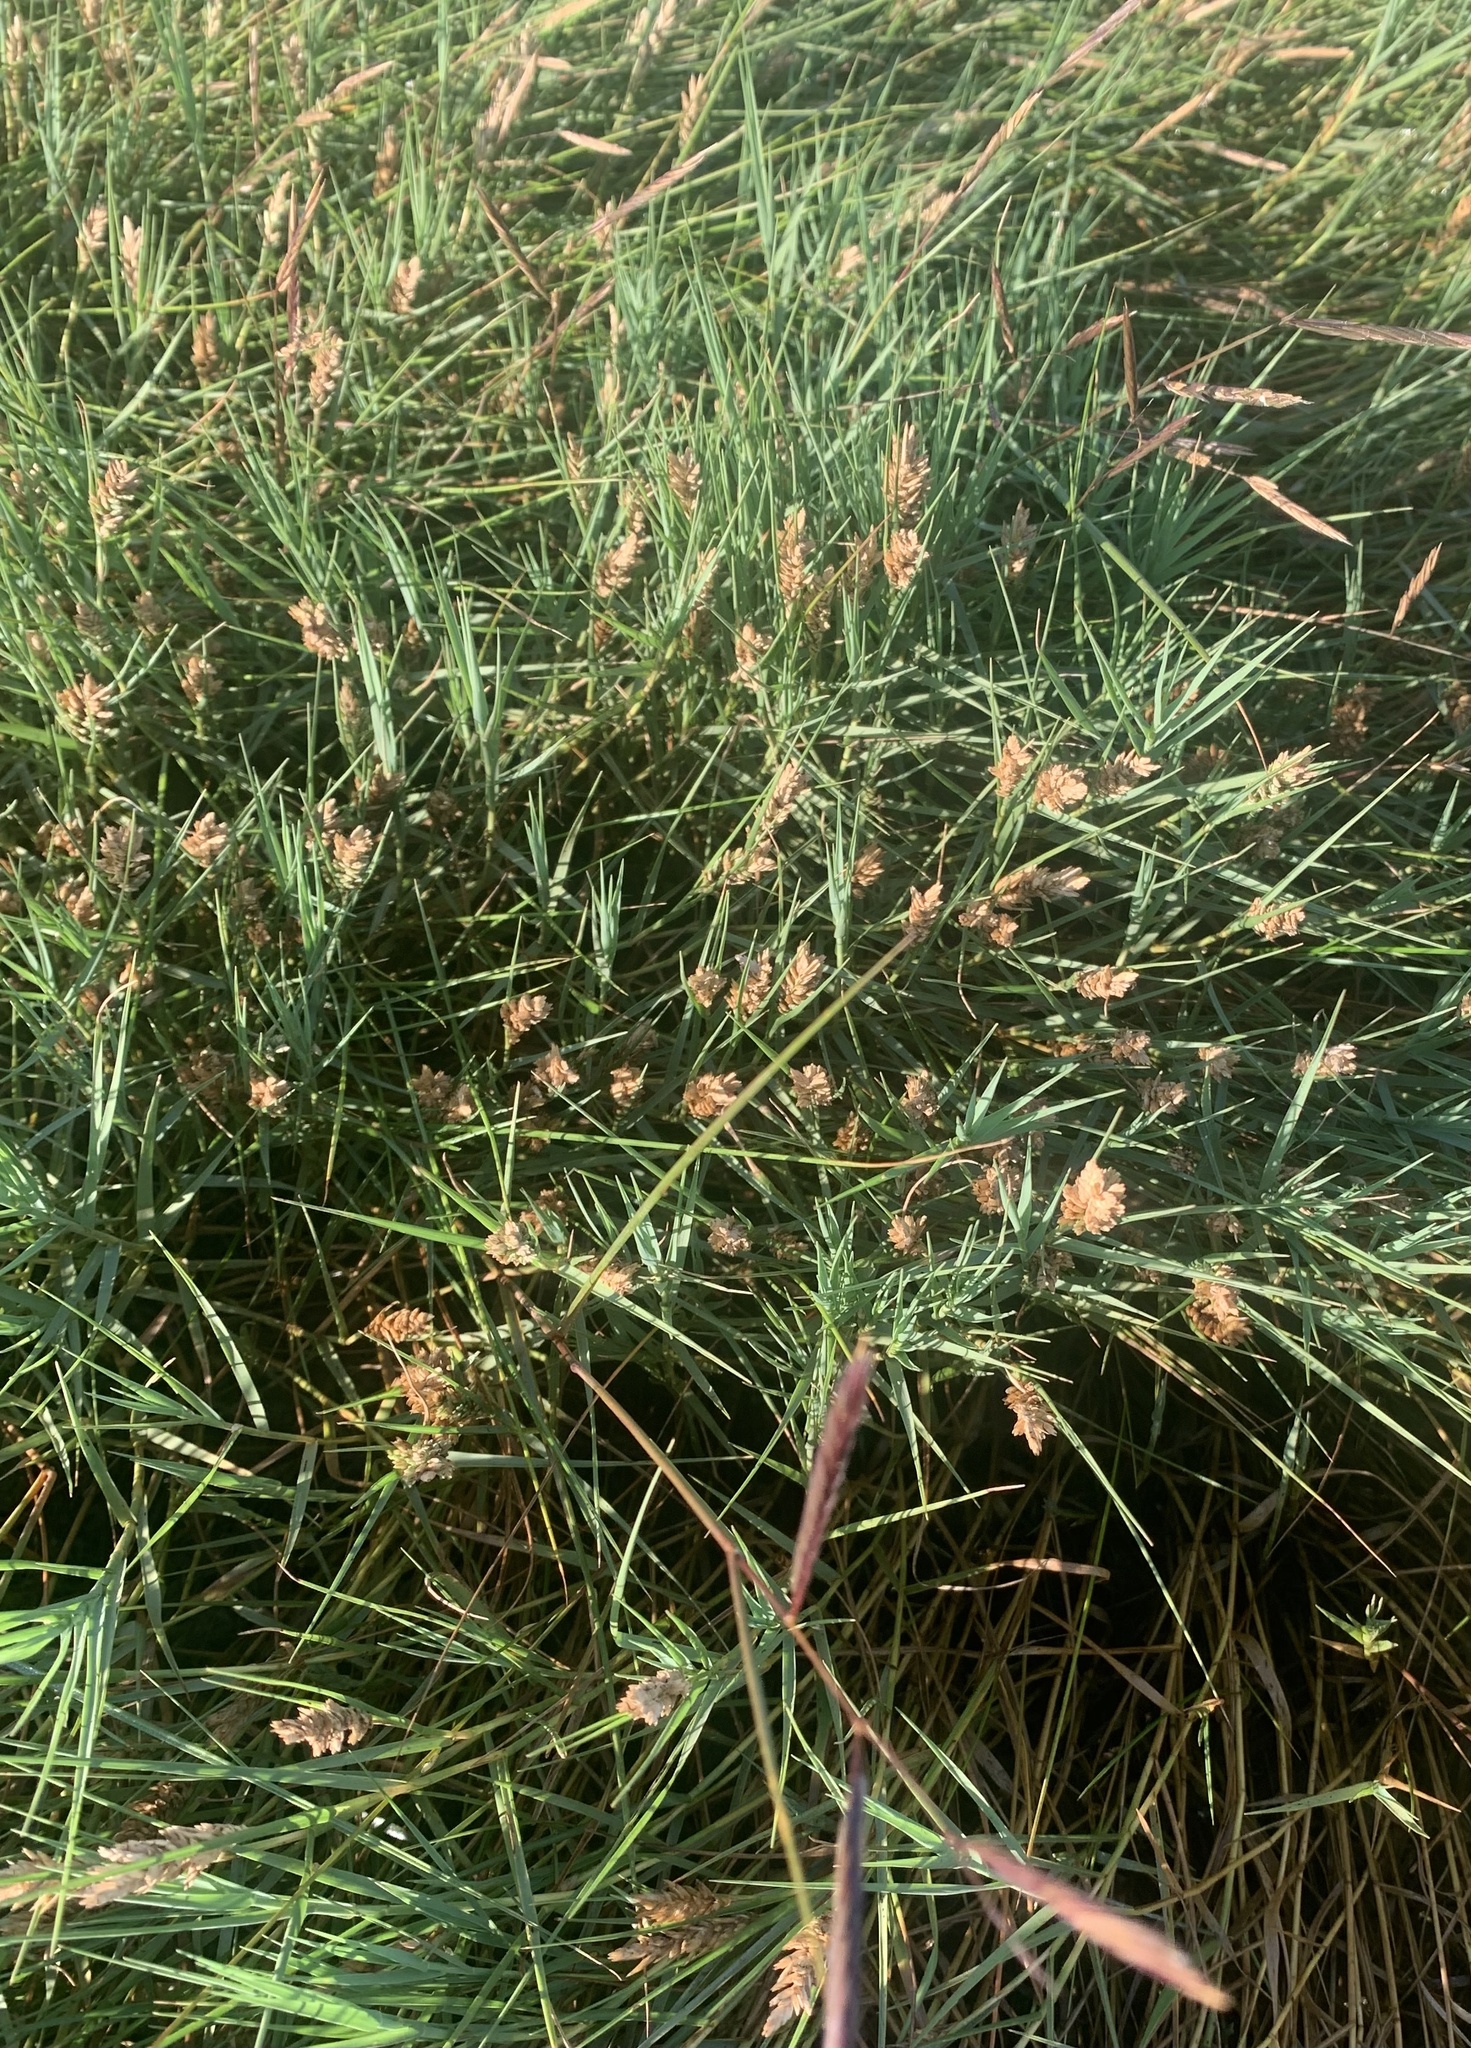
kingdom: Plantae
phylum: Tracheophyta
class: Liliopsida
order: Poales
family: Poaceae
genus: Distichlis
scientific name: Distichlis spicata
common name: Saltgrass
